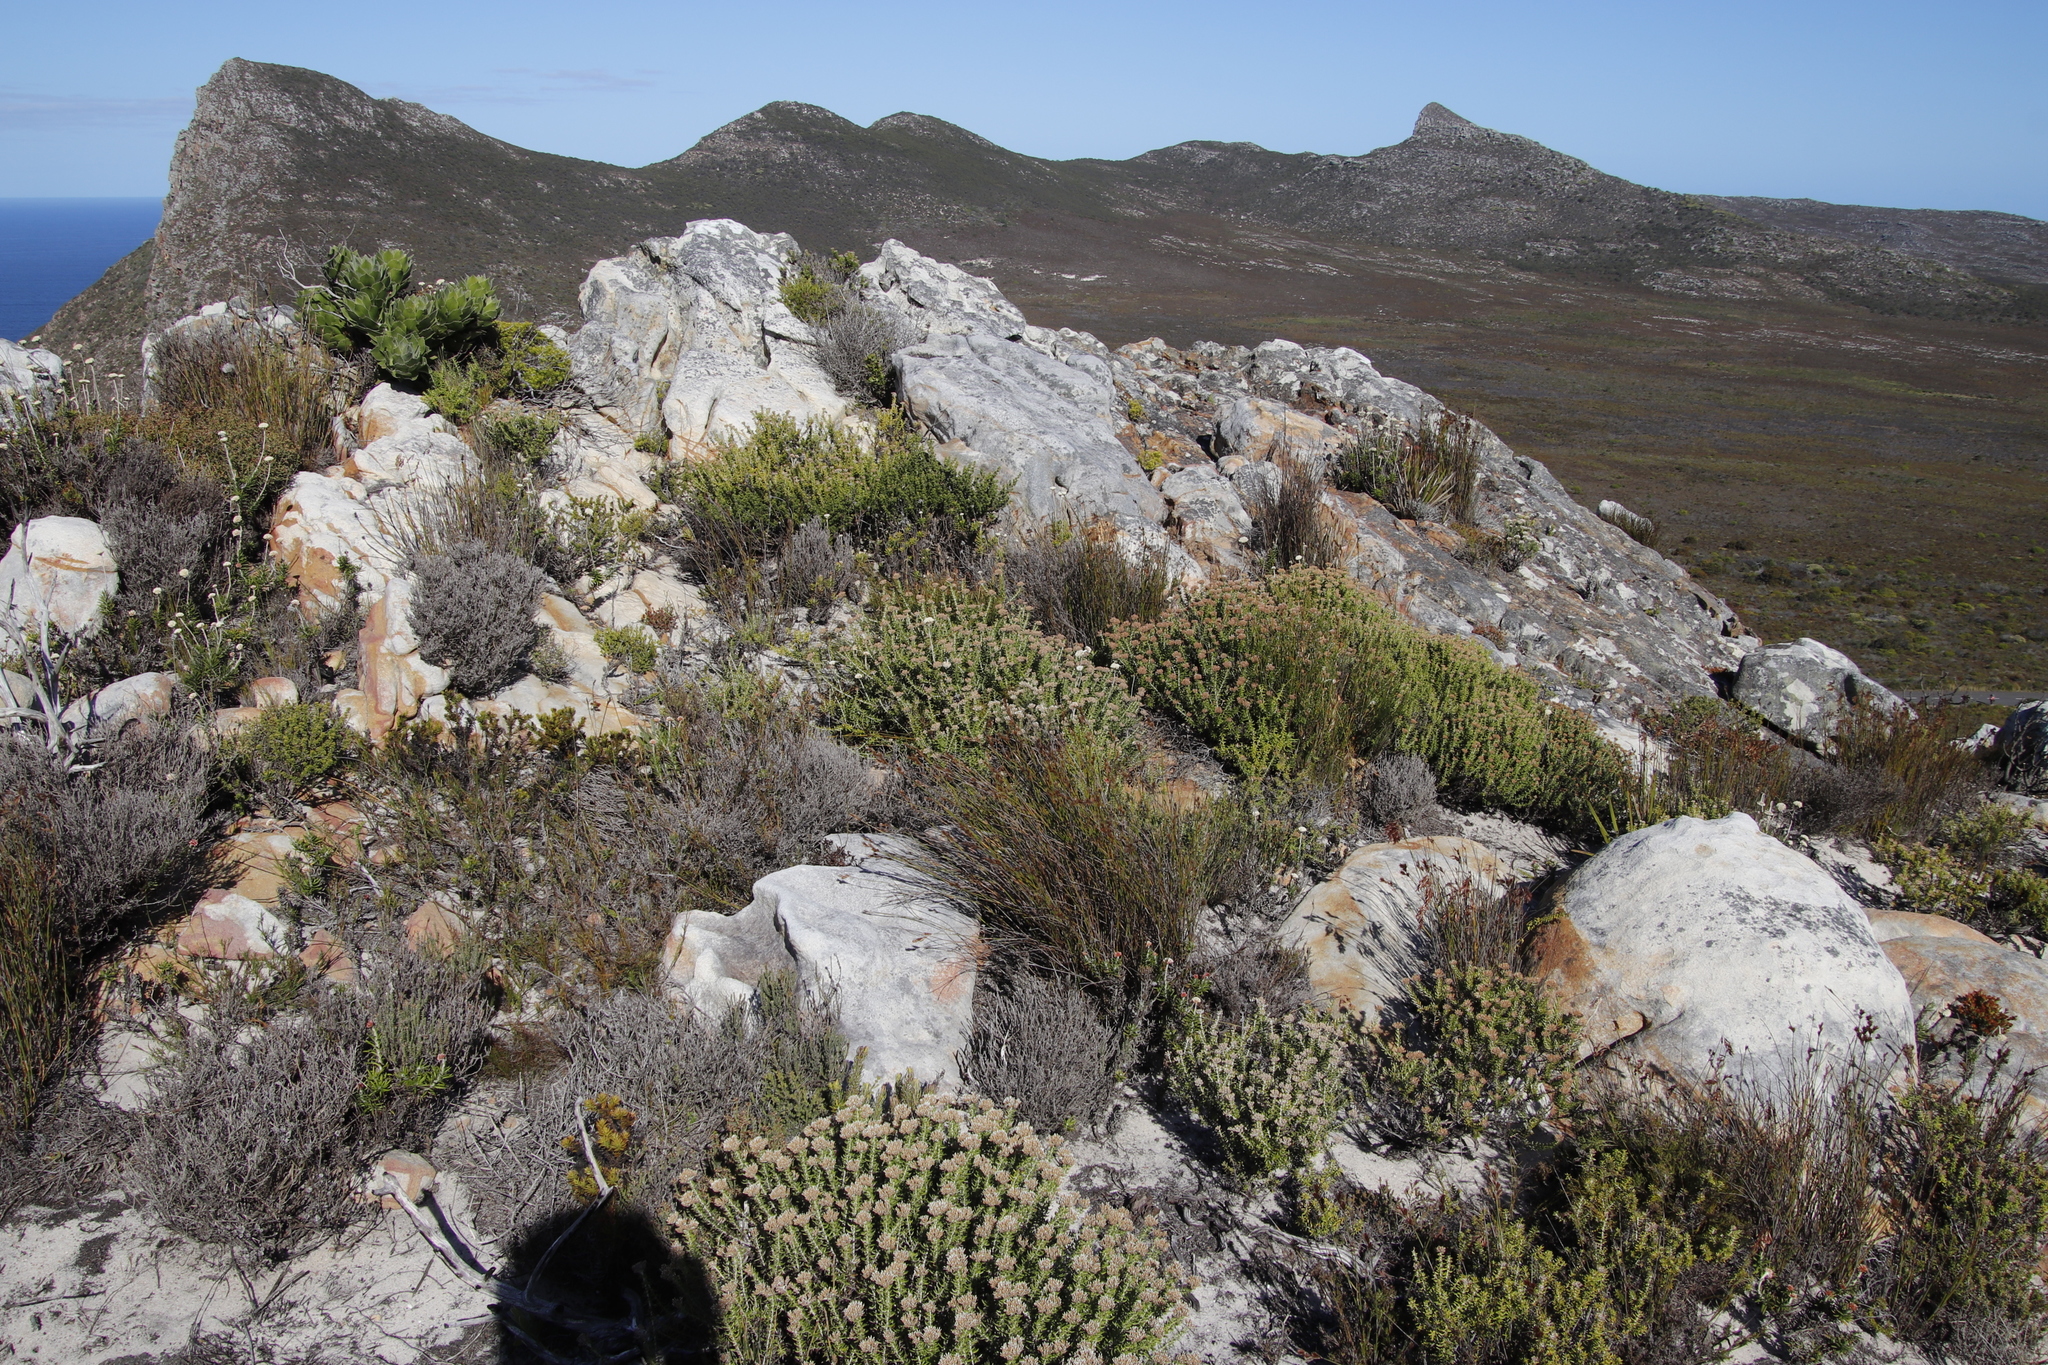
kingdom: Plantae
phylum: Tracheophyta
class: Magnoliopsida
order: Asterales
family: Asteraceae
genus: Metalasia
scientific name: Metalasia densa
